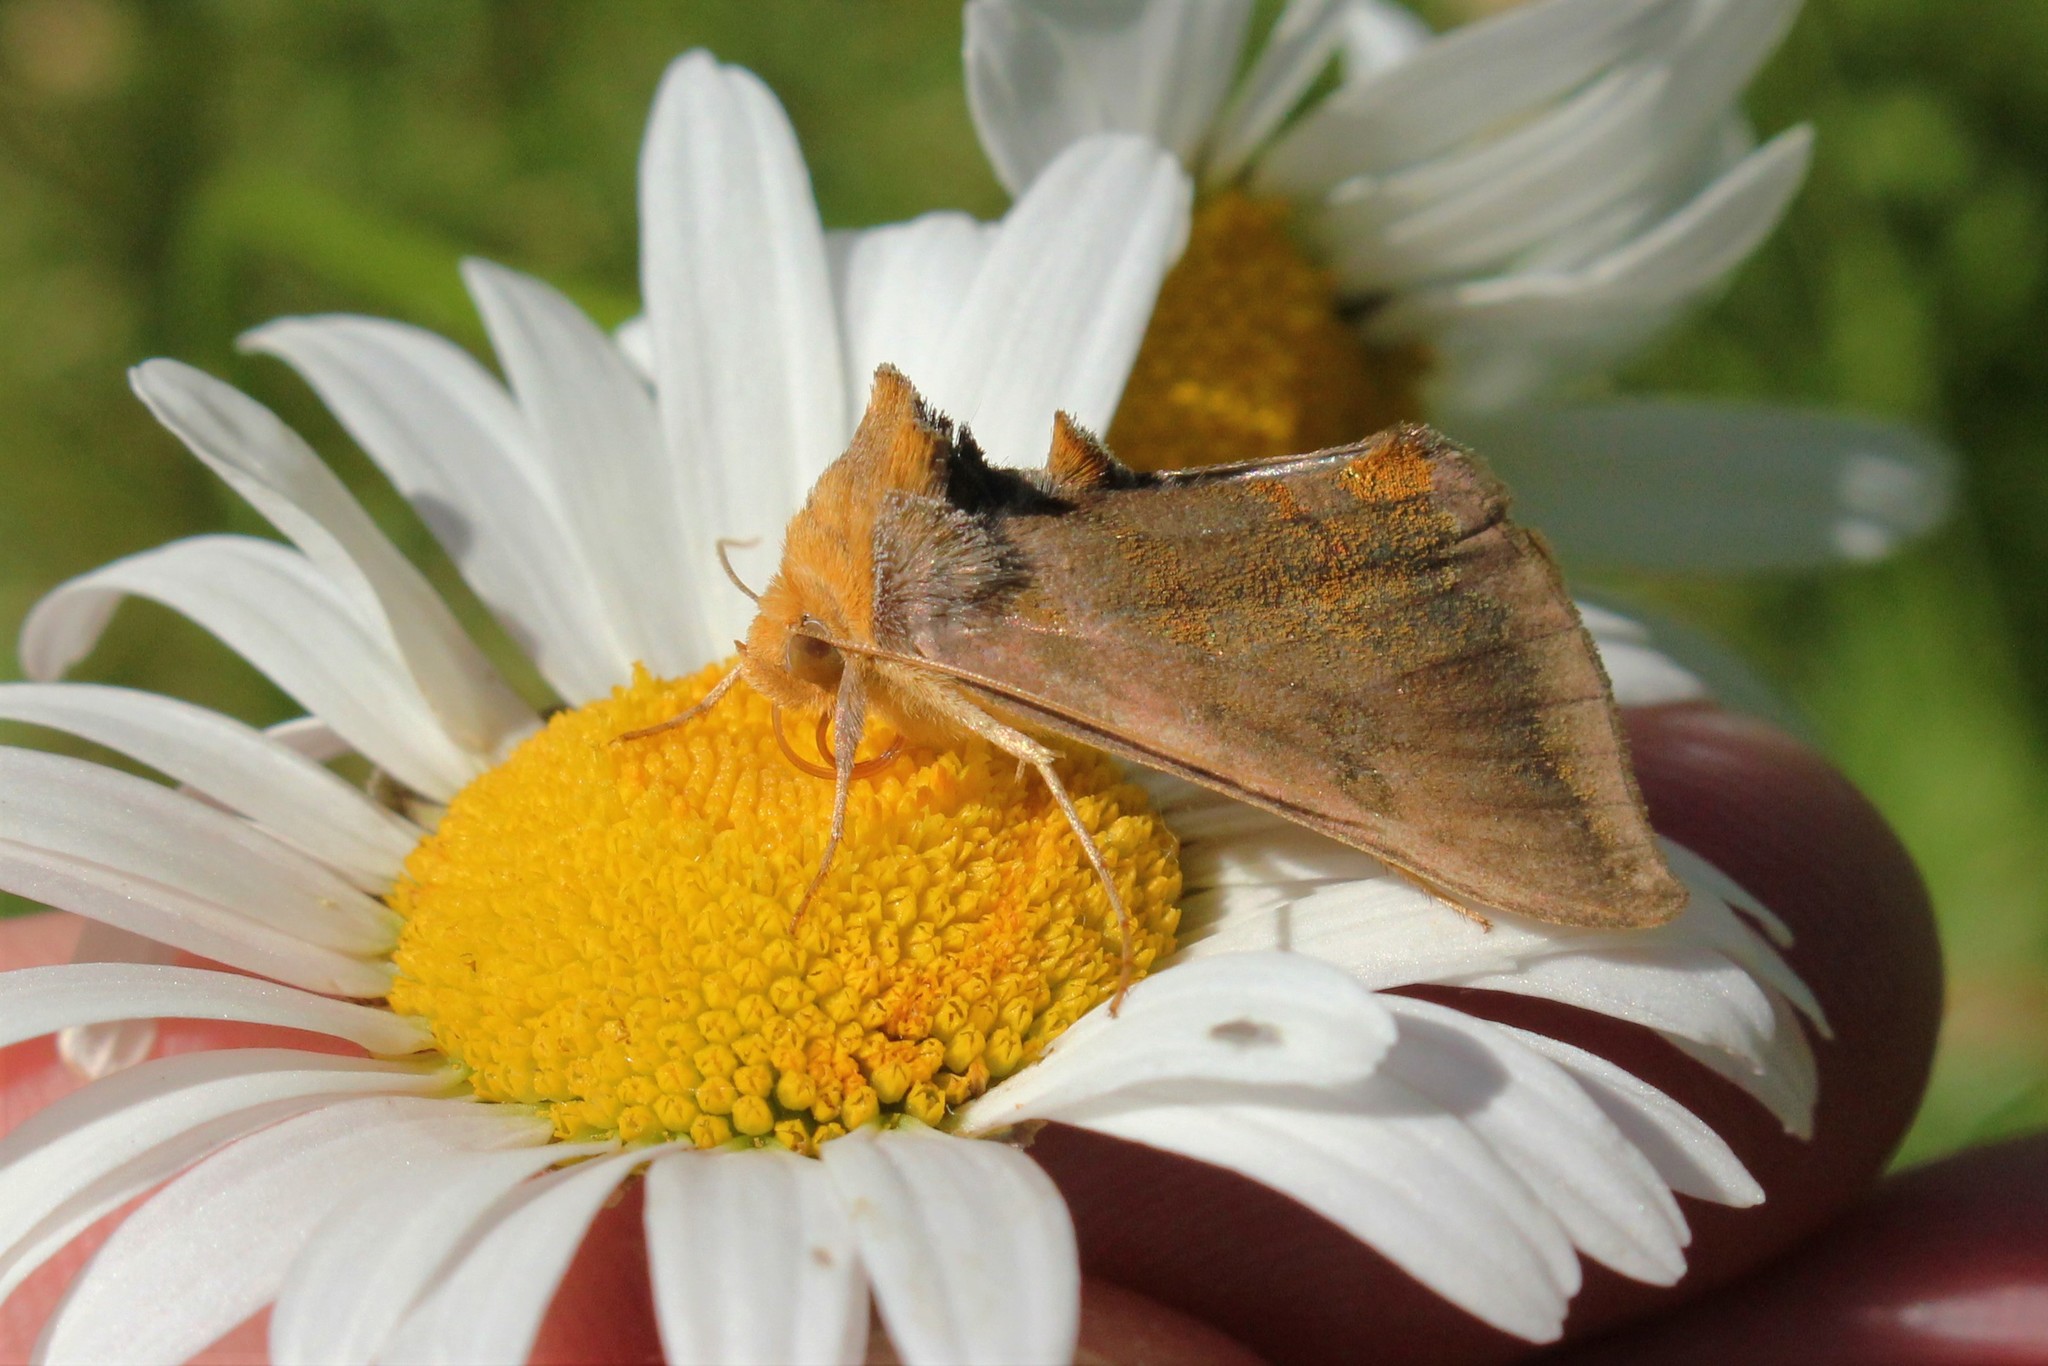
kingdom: Animalia
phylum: Arthropoda
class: Insecta
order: Lepidoptera
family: Noctuidae
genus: Allagrapha
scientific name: Allagrapha aerea
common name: Unspotted looper moth
